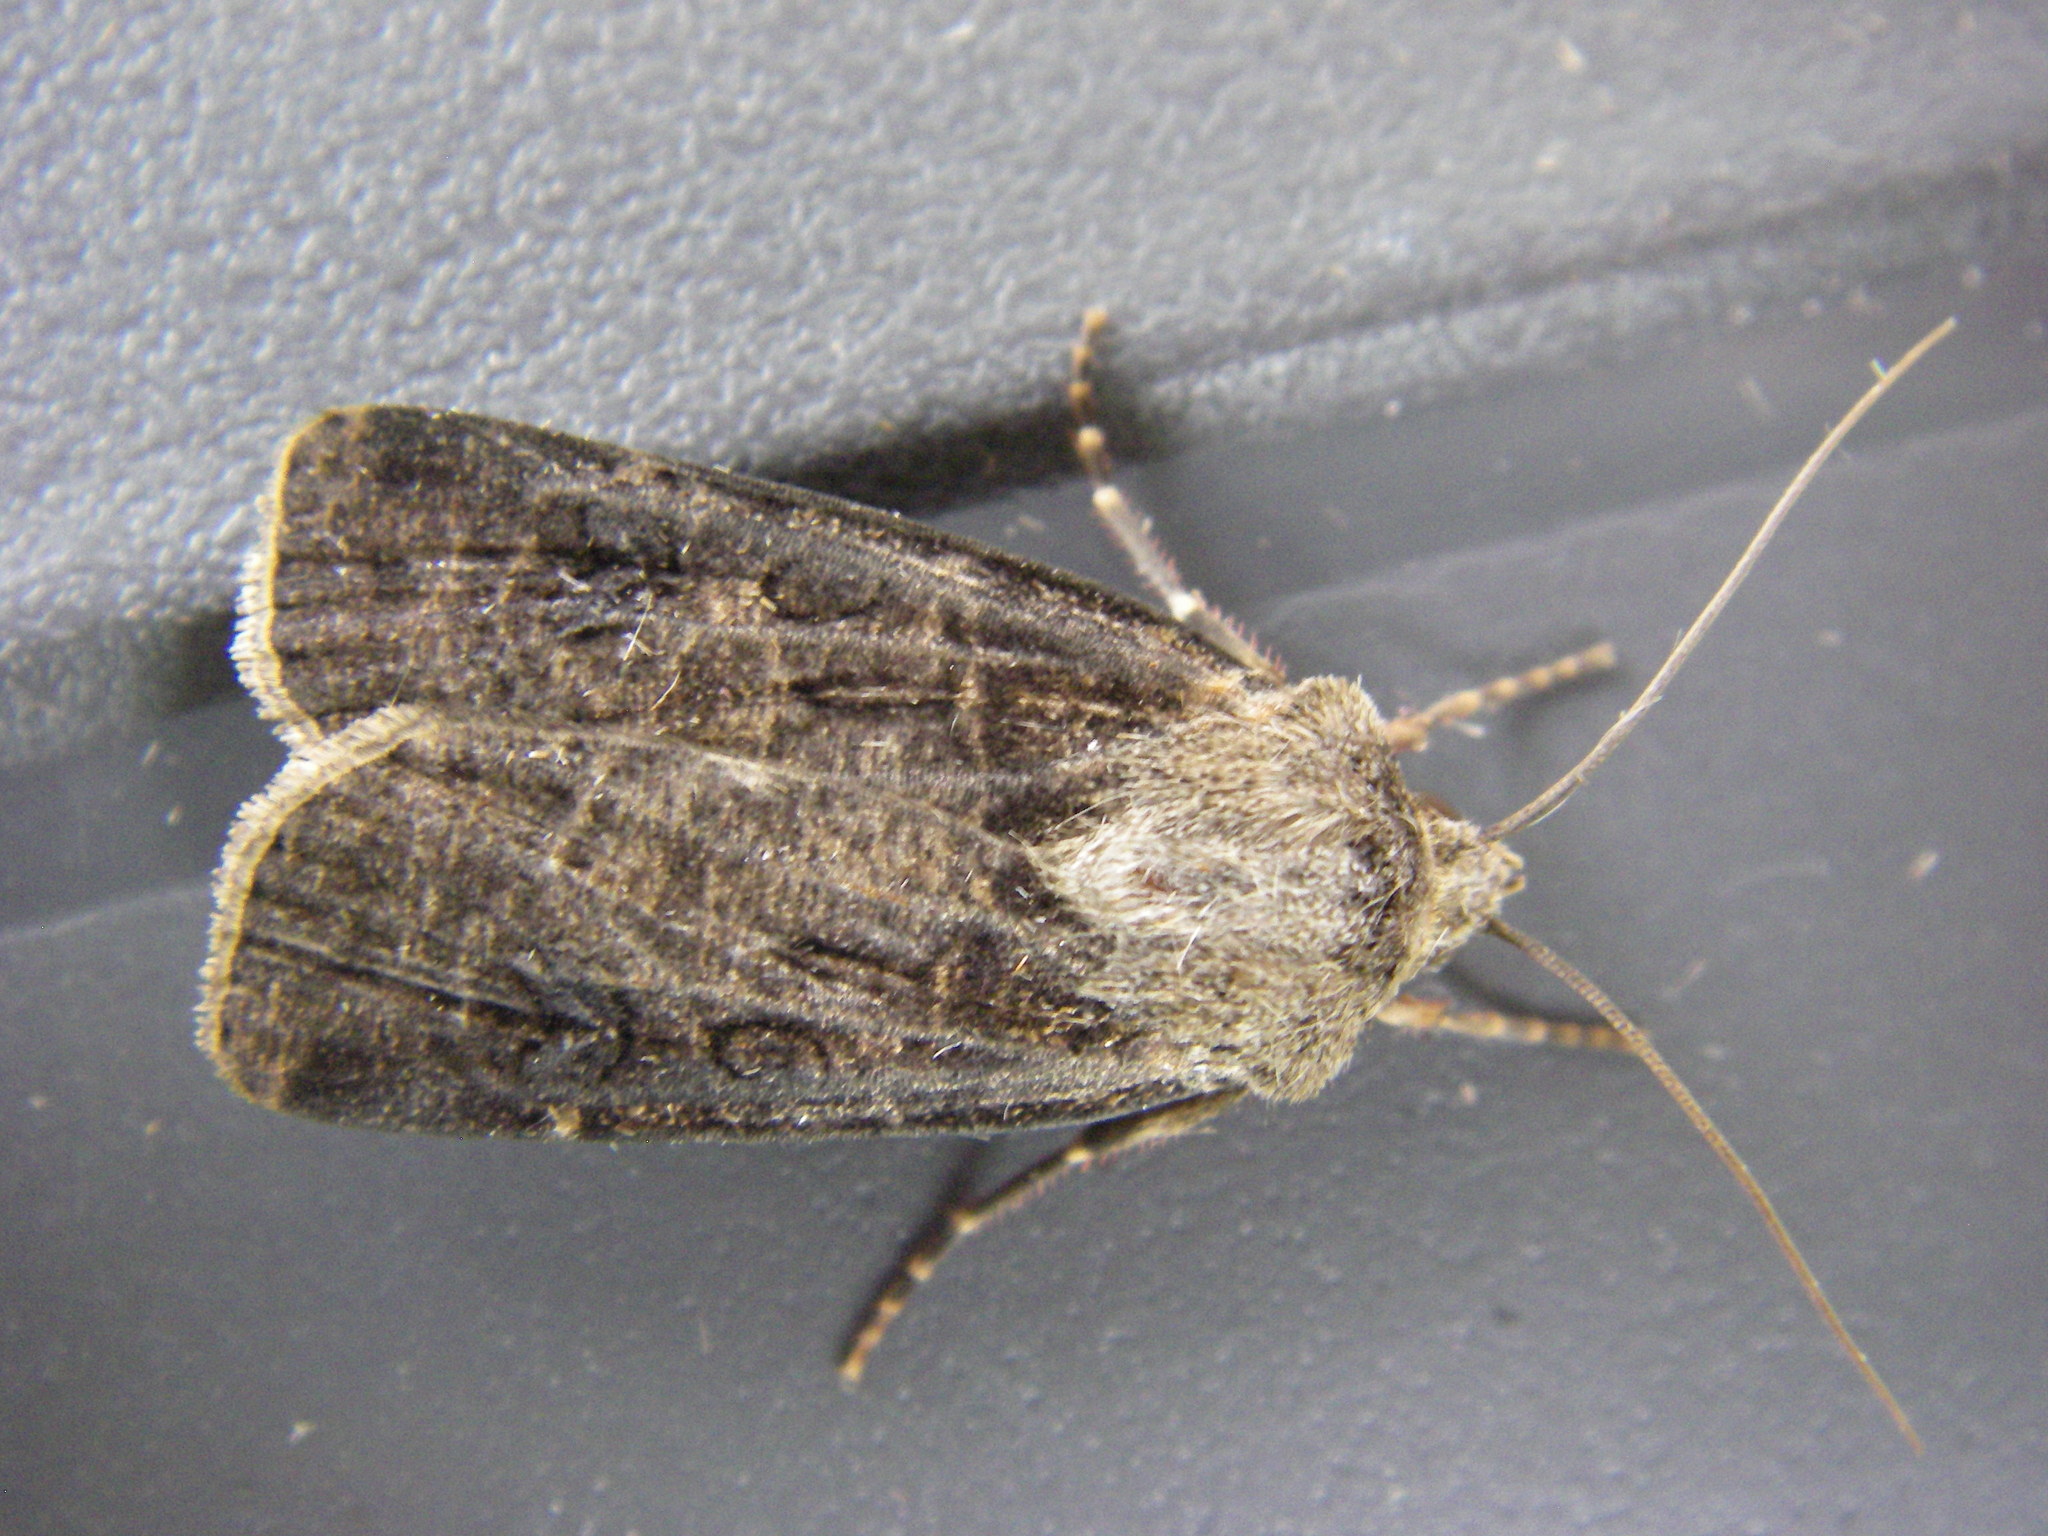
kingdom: Animalia
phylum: Arthropoda
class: Insecta
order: Lepidoptera
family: Noctuidae
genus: Agrotis
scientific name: Agrotis segetum
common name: Turnip moth
